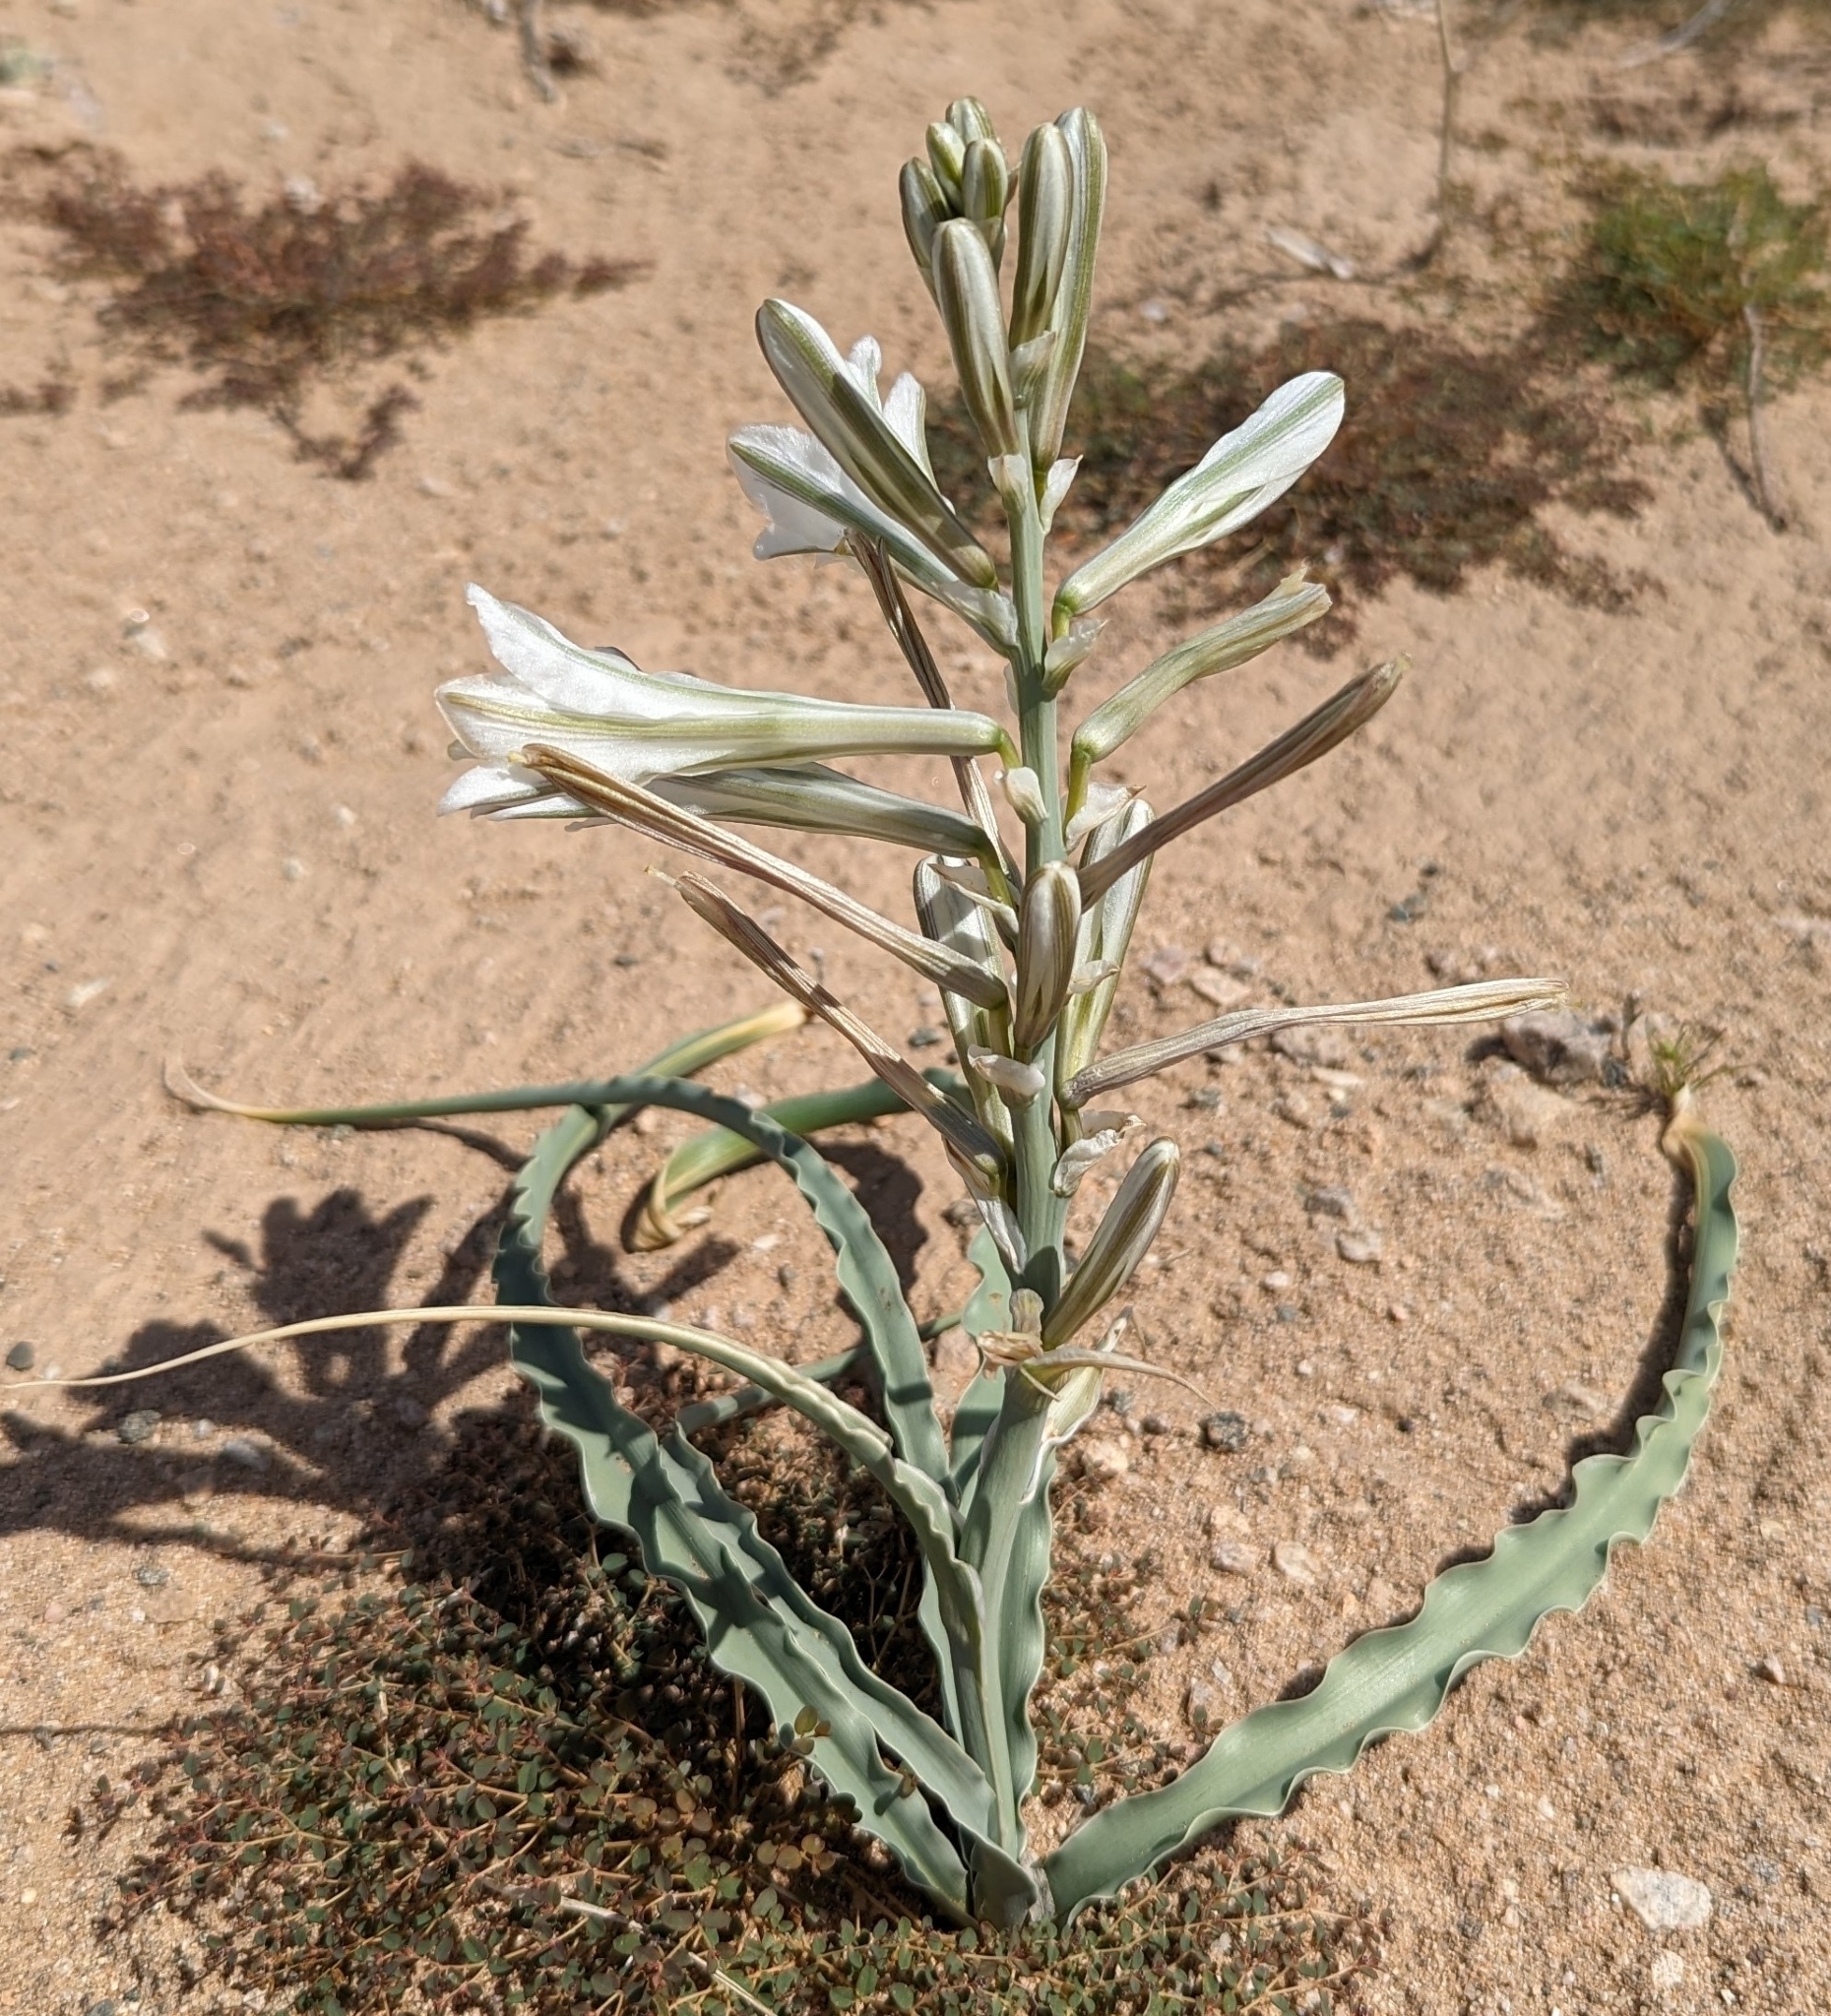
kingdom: Plantae
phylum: Tracheophyta
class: Liliopsida
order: Asparagales
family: Asparagaceae
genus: Hesperocallis
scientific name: Hesperocallis undulata
